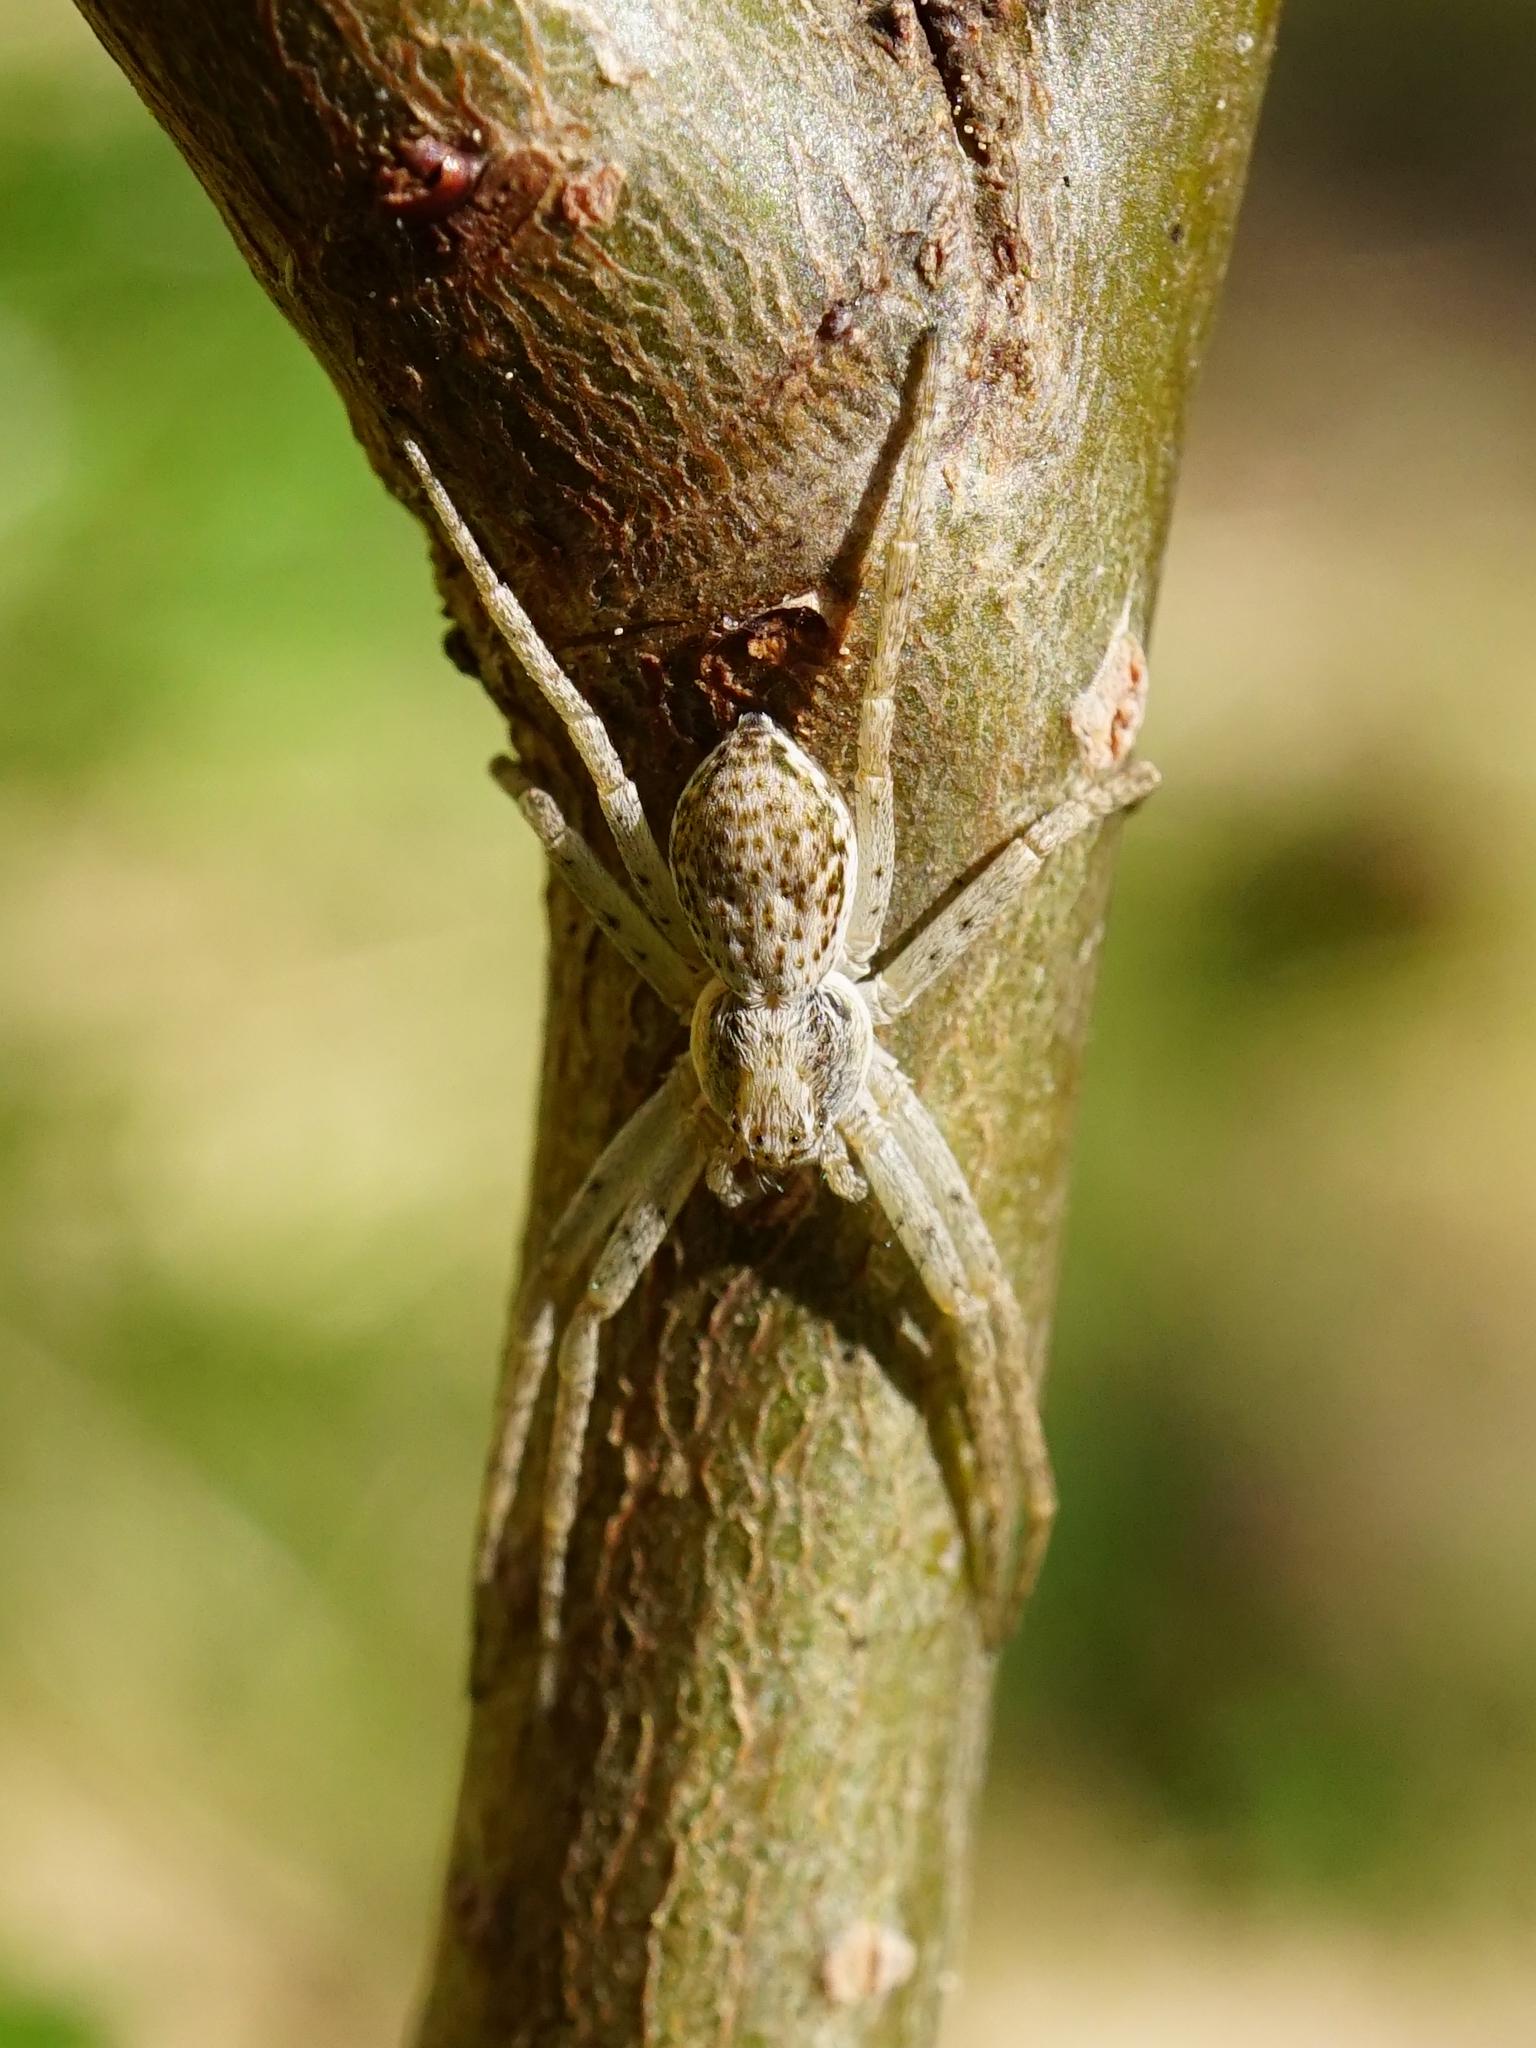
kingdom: Animalia
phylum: Arthropoda
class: Arachnida
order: Araneae
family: Philodromidae
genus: Philodromus
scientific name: Philodromus dispar
